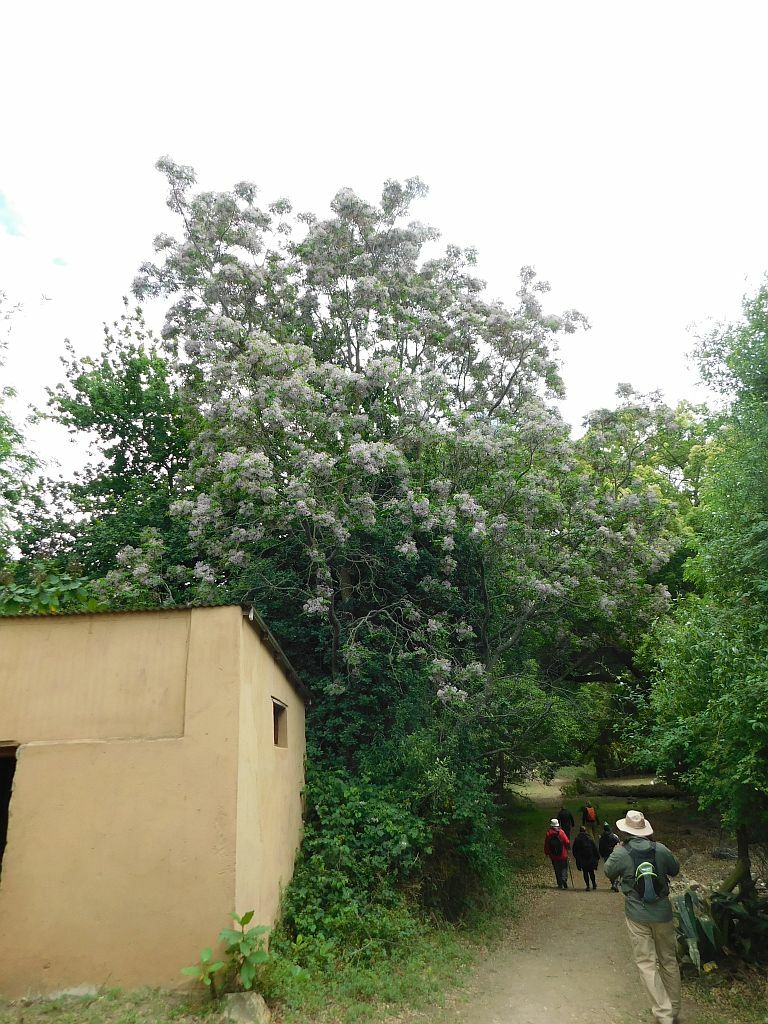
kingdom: Plantae
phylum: Tracheophyta
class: Magnoliopsida
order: Sapindales
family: Meliaceae
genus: Melia
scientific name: Melia azedarach
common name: Chinaberrytree
